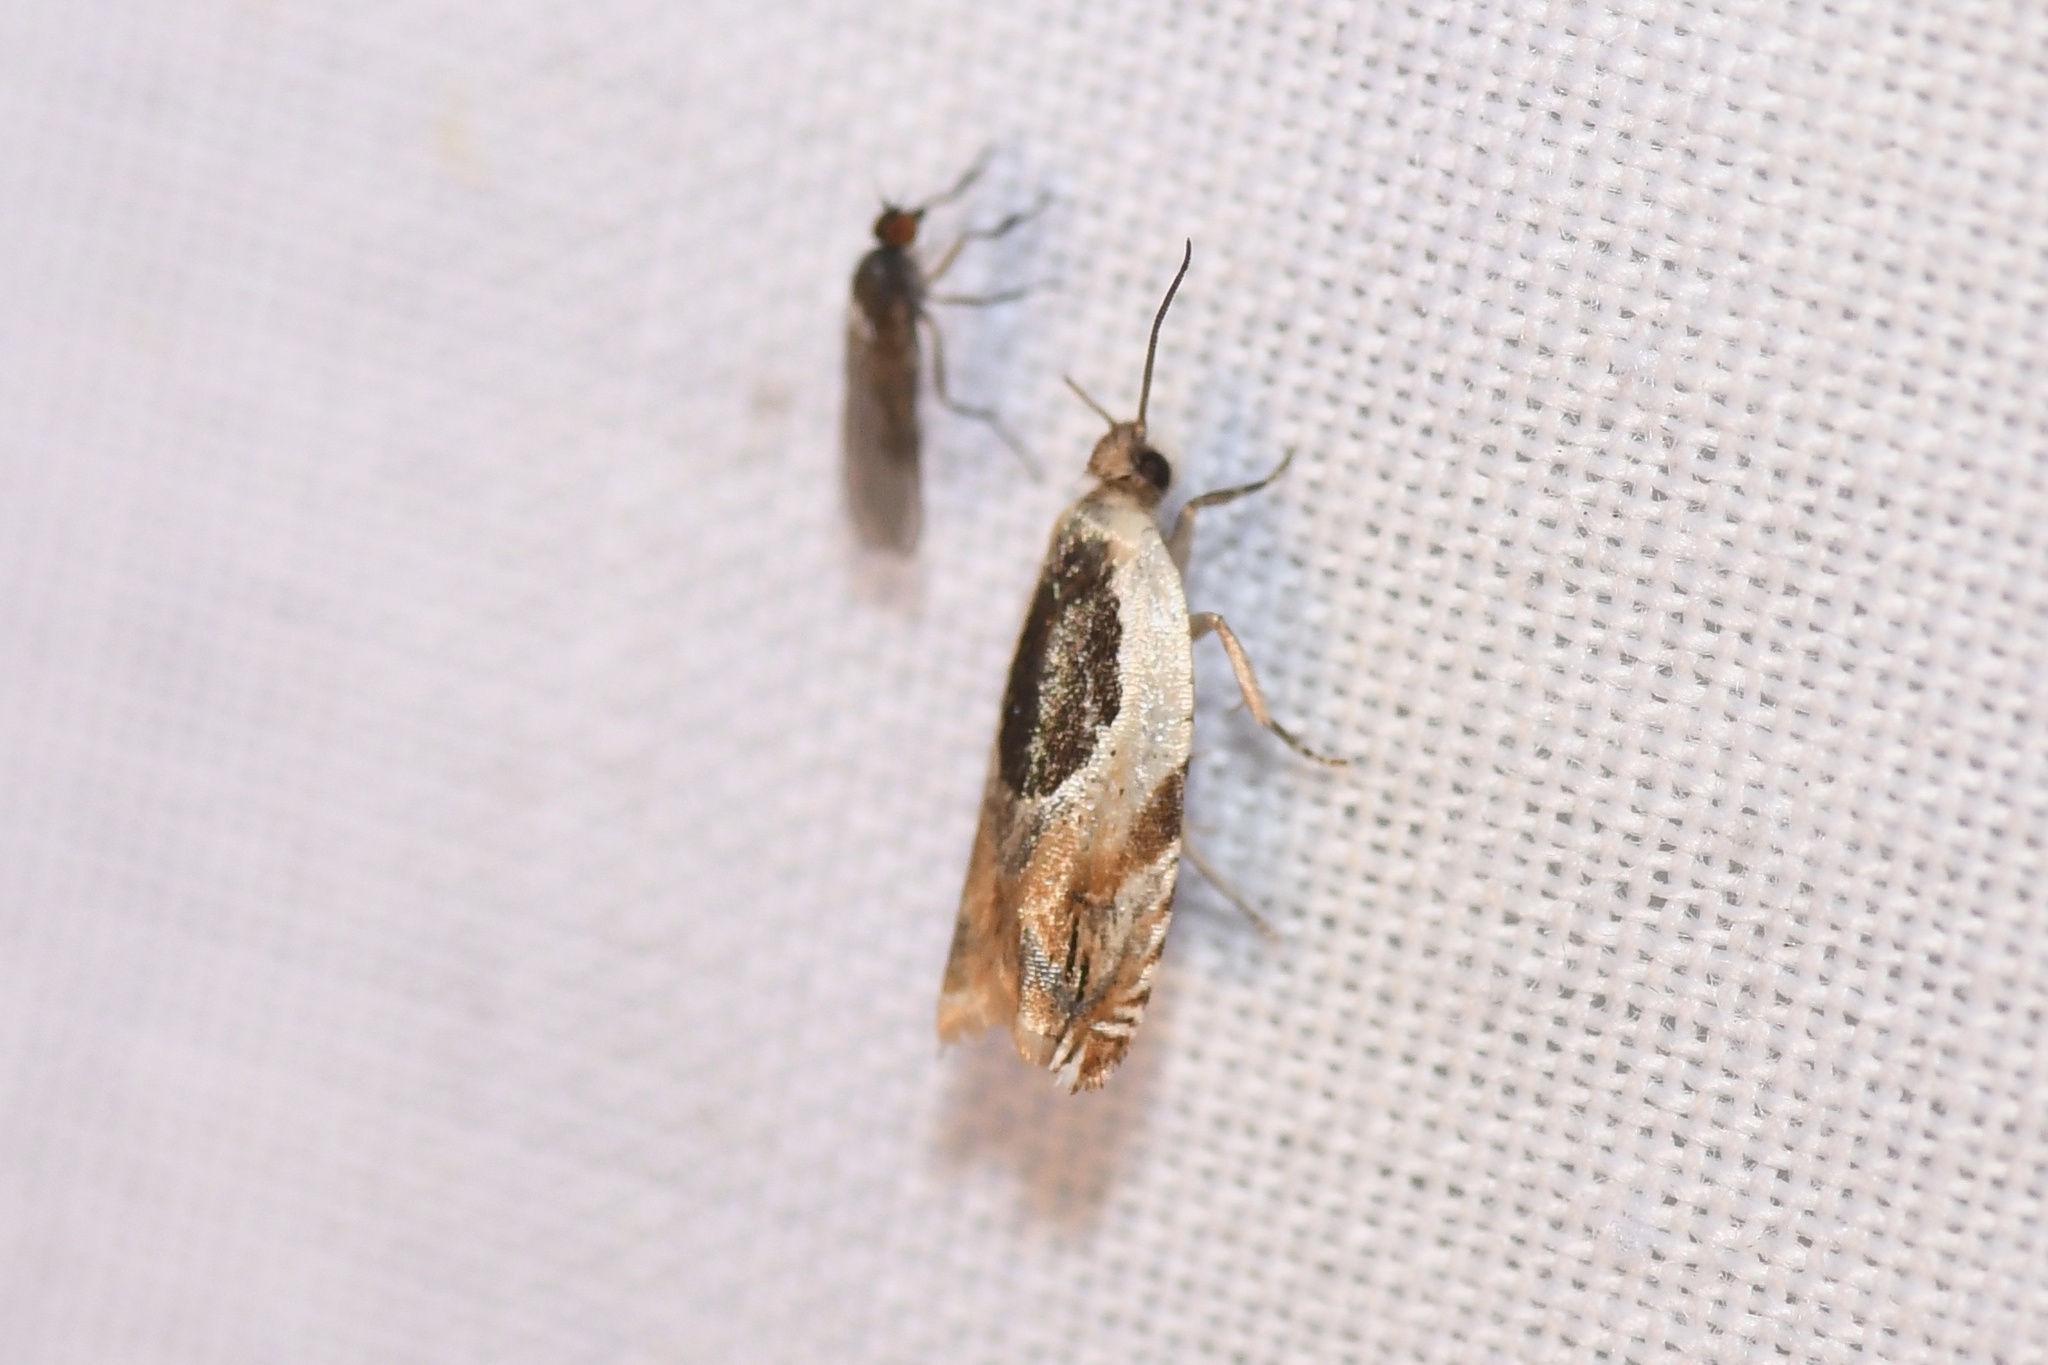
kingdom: Animalia
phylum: Arthropoda
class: Insecta
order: Lepidoptera
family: Tortricidae
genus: Ancylis
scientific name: Ancylis burgessiana
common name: Oak leaffolder moth
